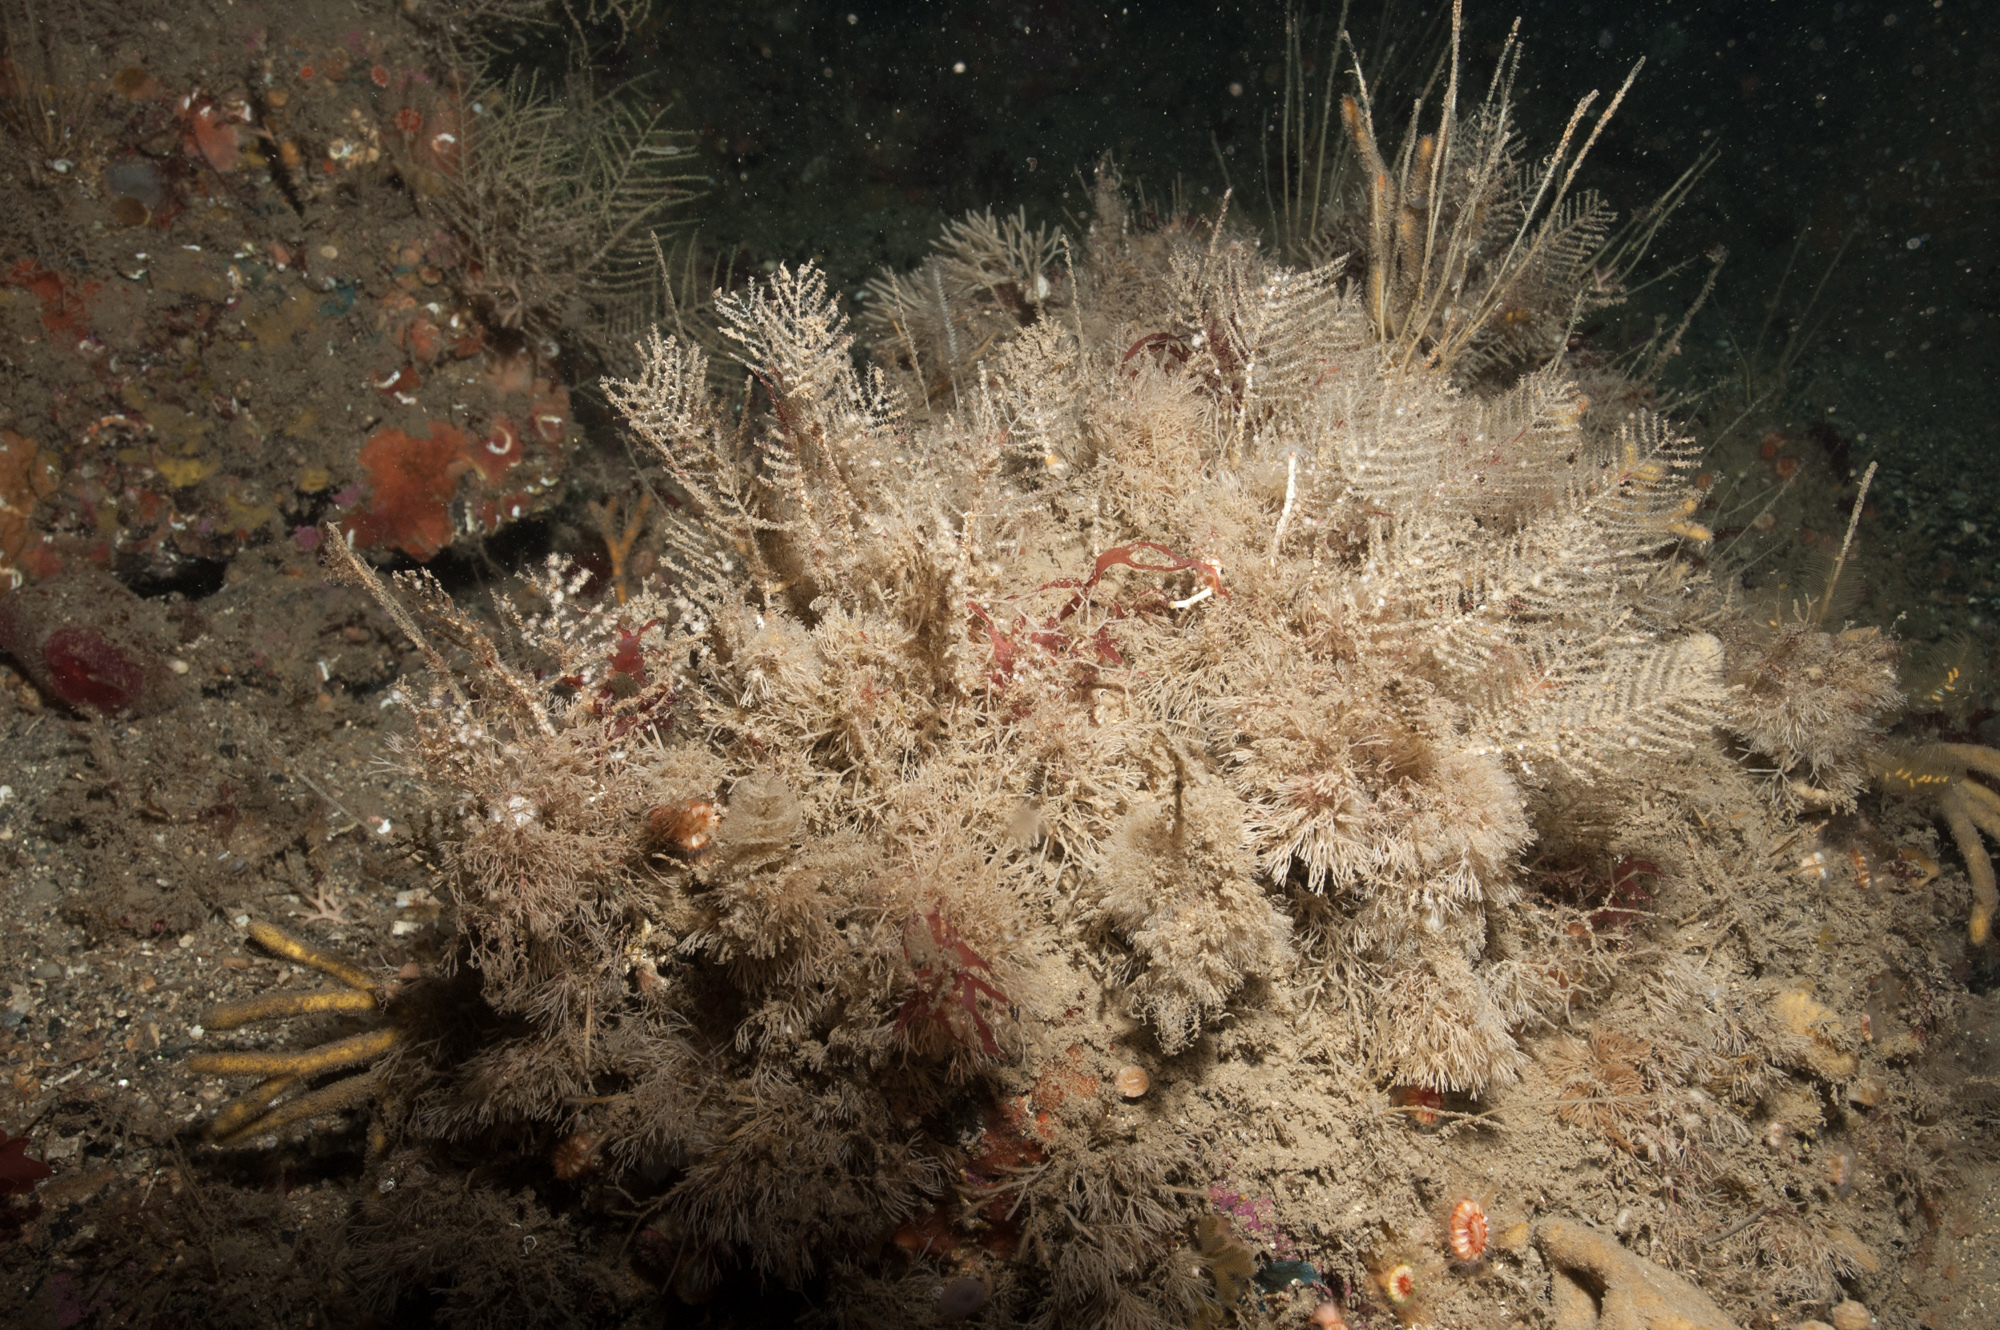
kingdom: Animalia
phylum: Cnidaria
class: Hydrozoa
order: Leptothecata
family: Sertulariidae
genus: Diphasia
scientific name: Diphasia margareta
